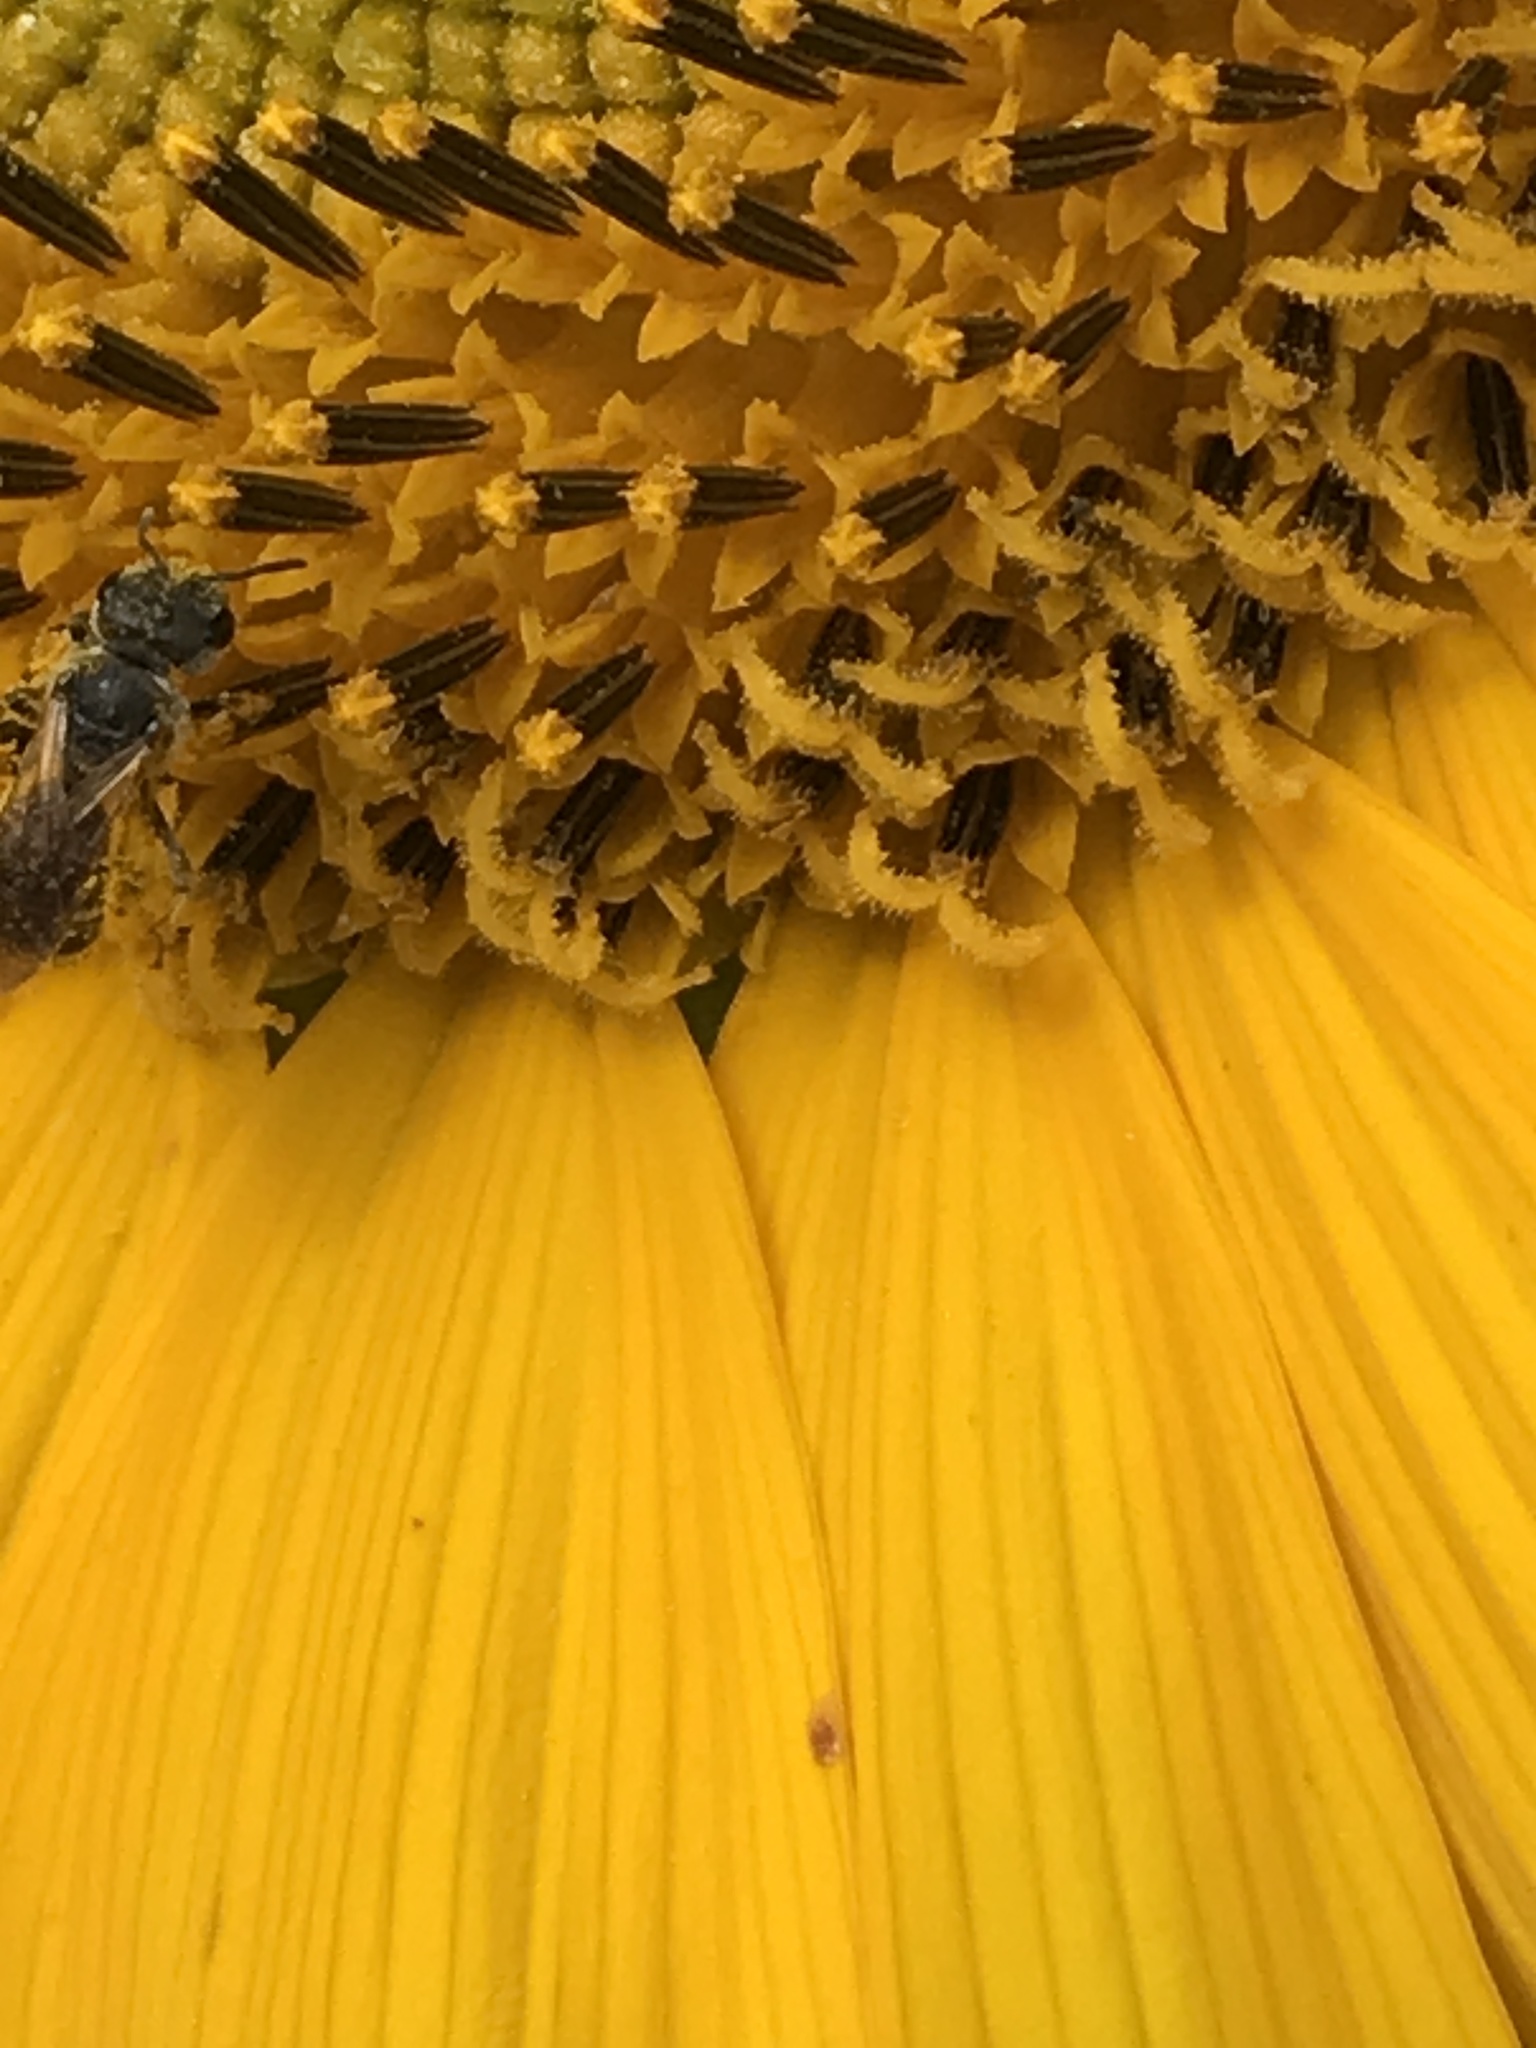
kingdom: Animalia
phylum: Arthropoda
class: Insecta
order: Hymenoptera
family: Halictidae
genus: Halictus
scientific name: Halictus ligatus
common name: Ligated furrow bee
